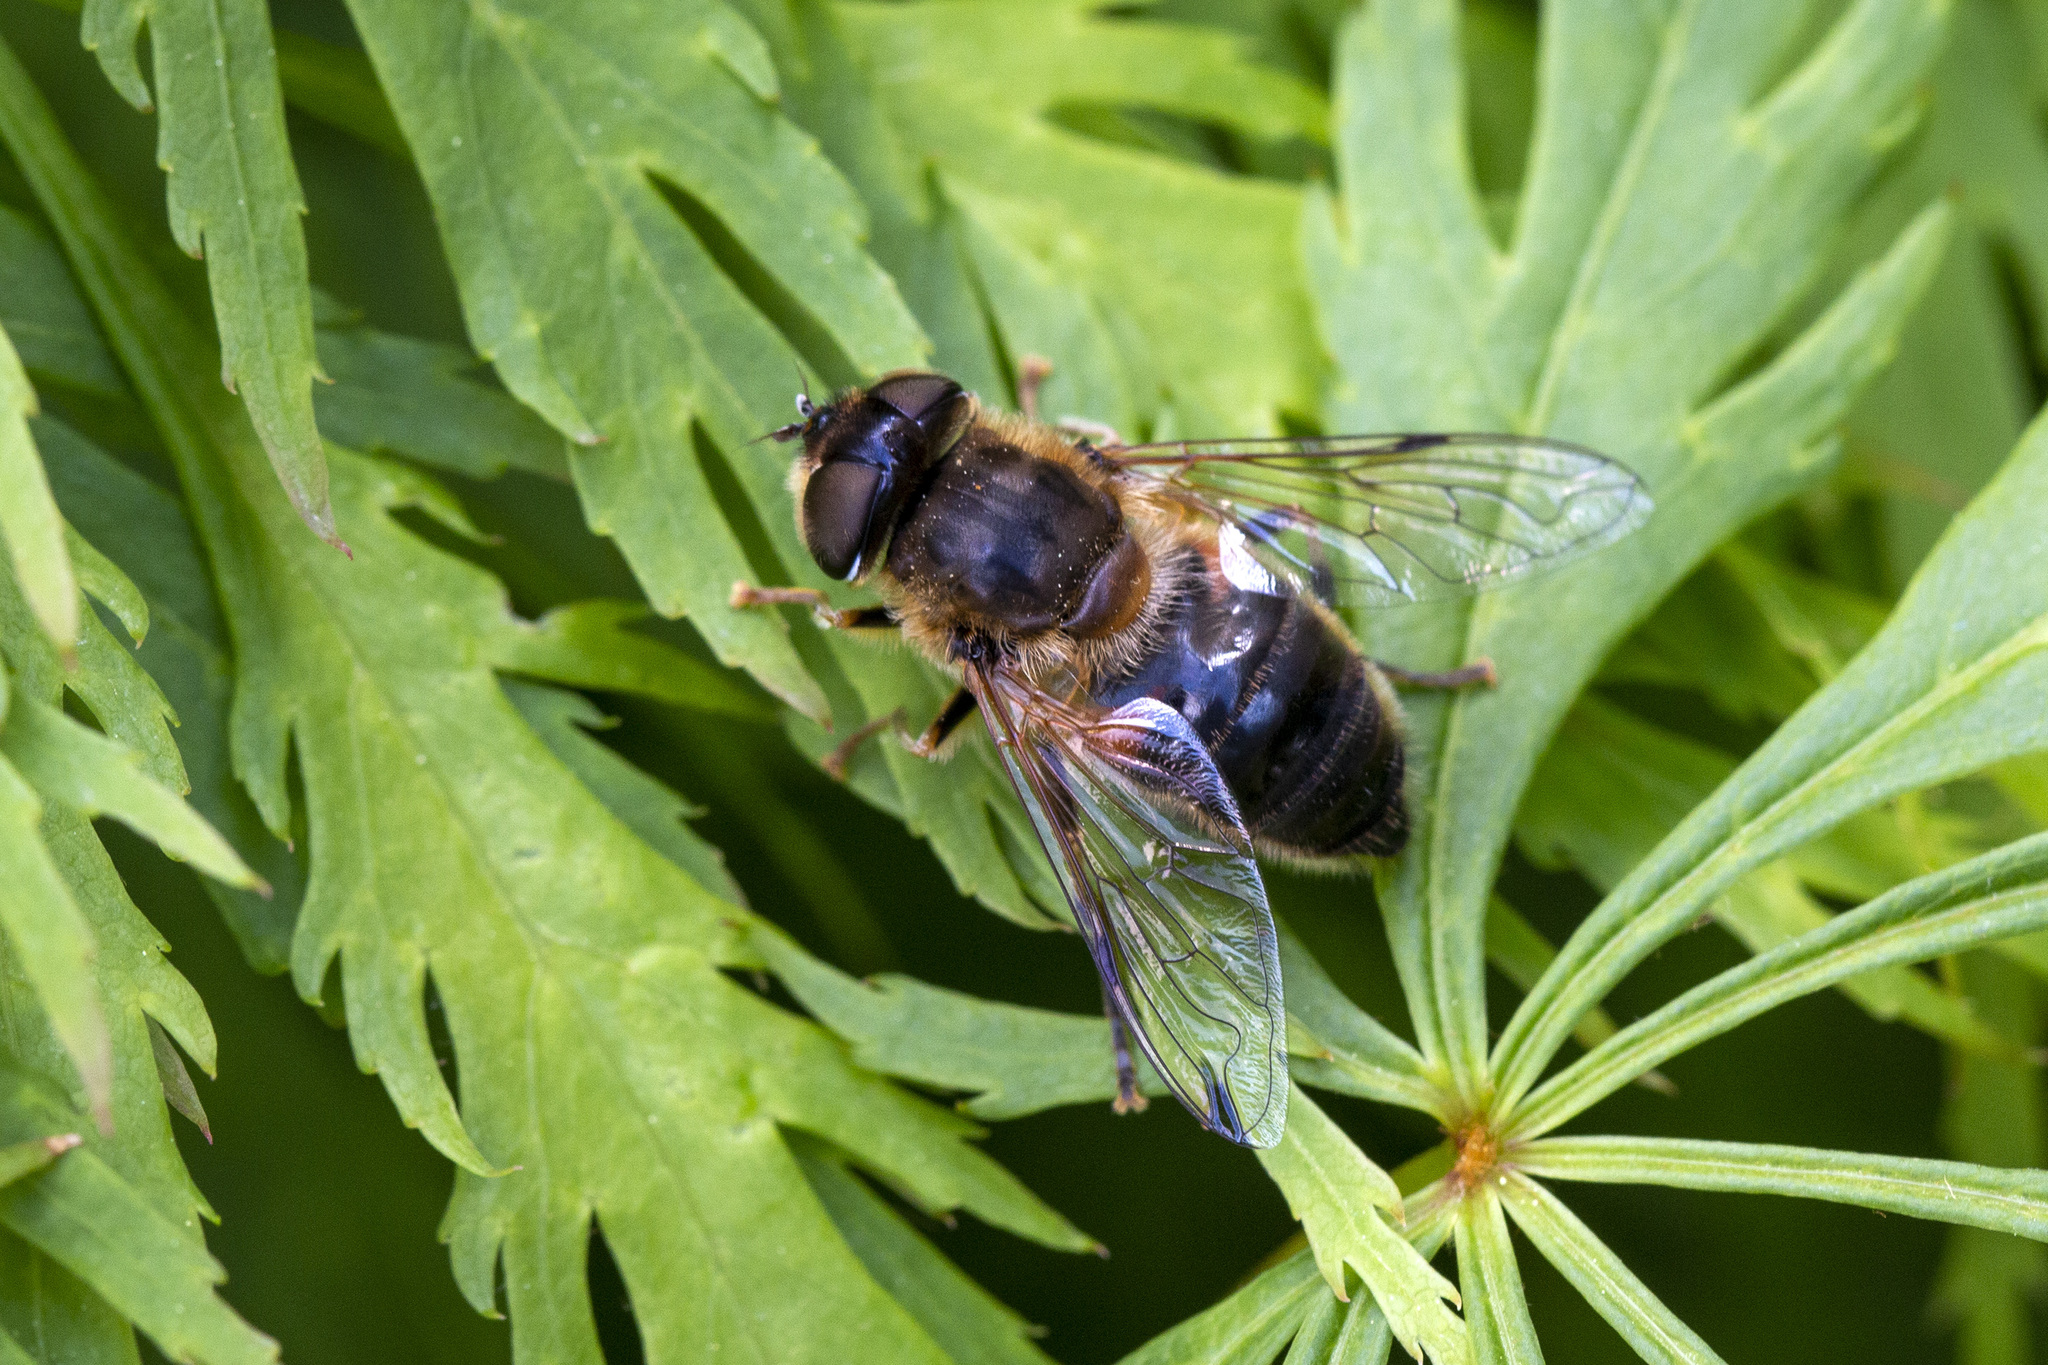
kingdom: Animalia
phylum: Arthropoda
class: Insecta
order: Diptera
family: Syrphidae
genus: Eristalis
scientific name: Eristalis pertinax
